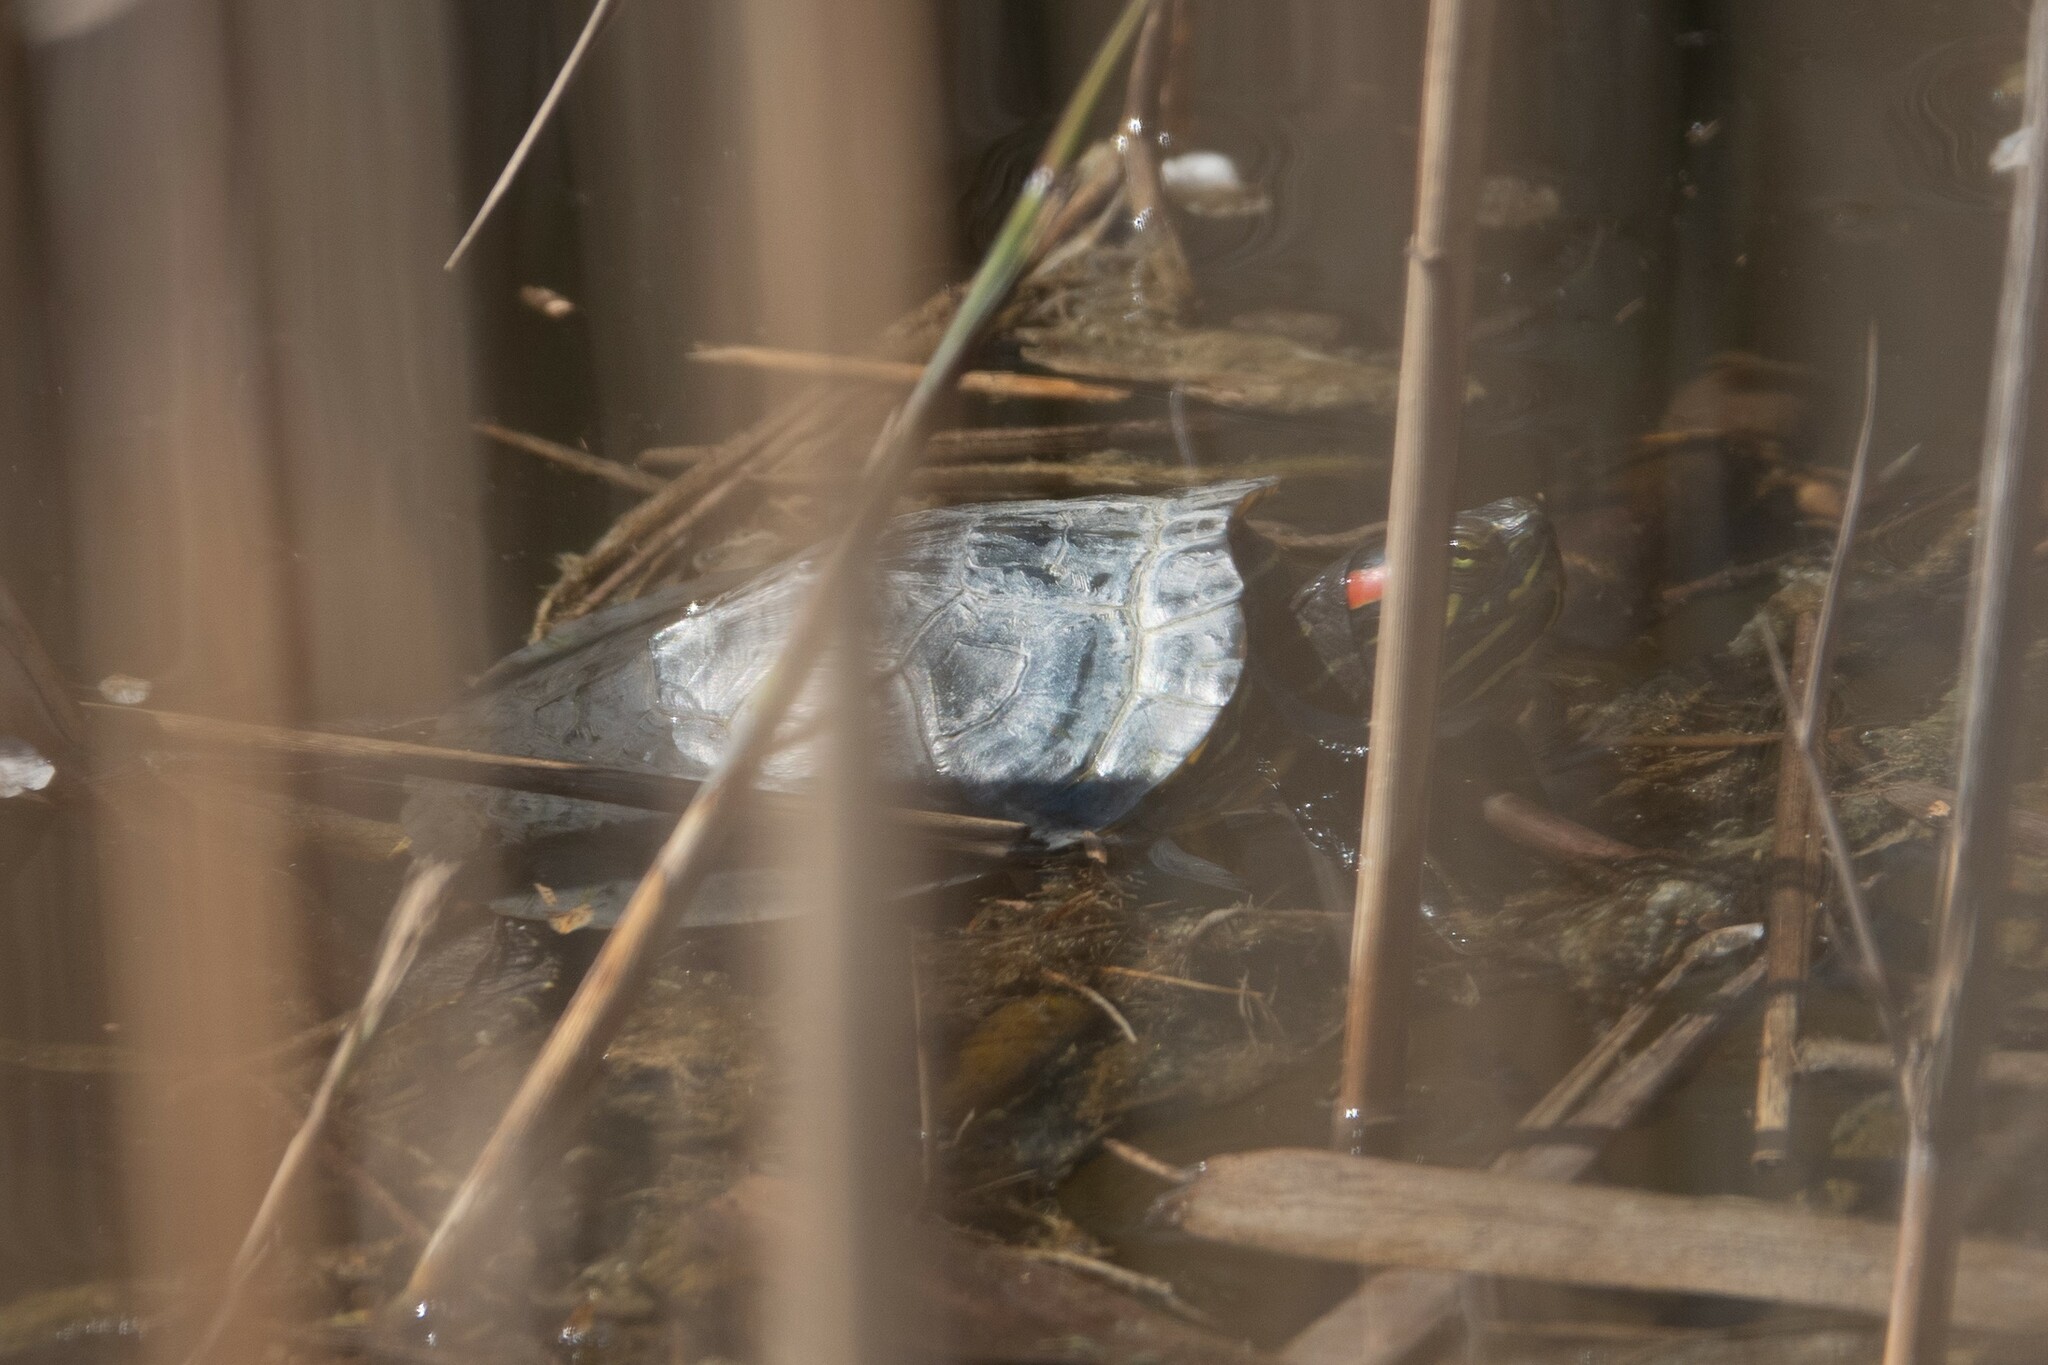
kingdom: Animalia
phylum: Chordata
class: Testudines
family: Emydidae
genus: Trachemys
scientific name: Trachemys scripta
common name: Slider
